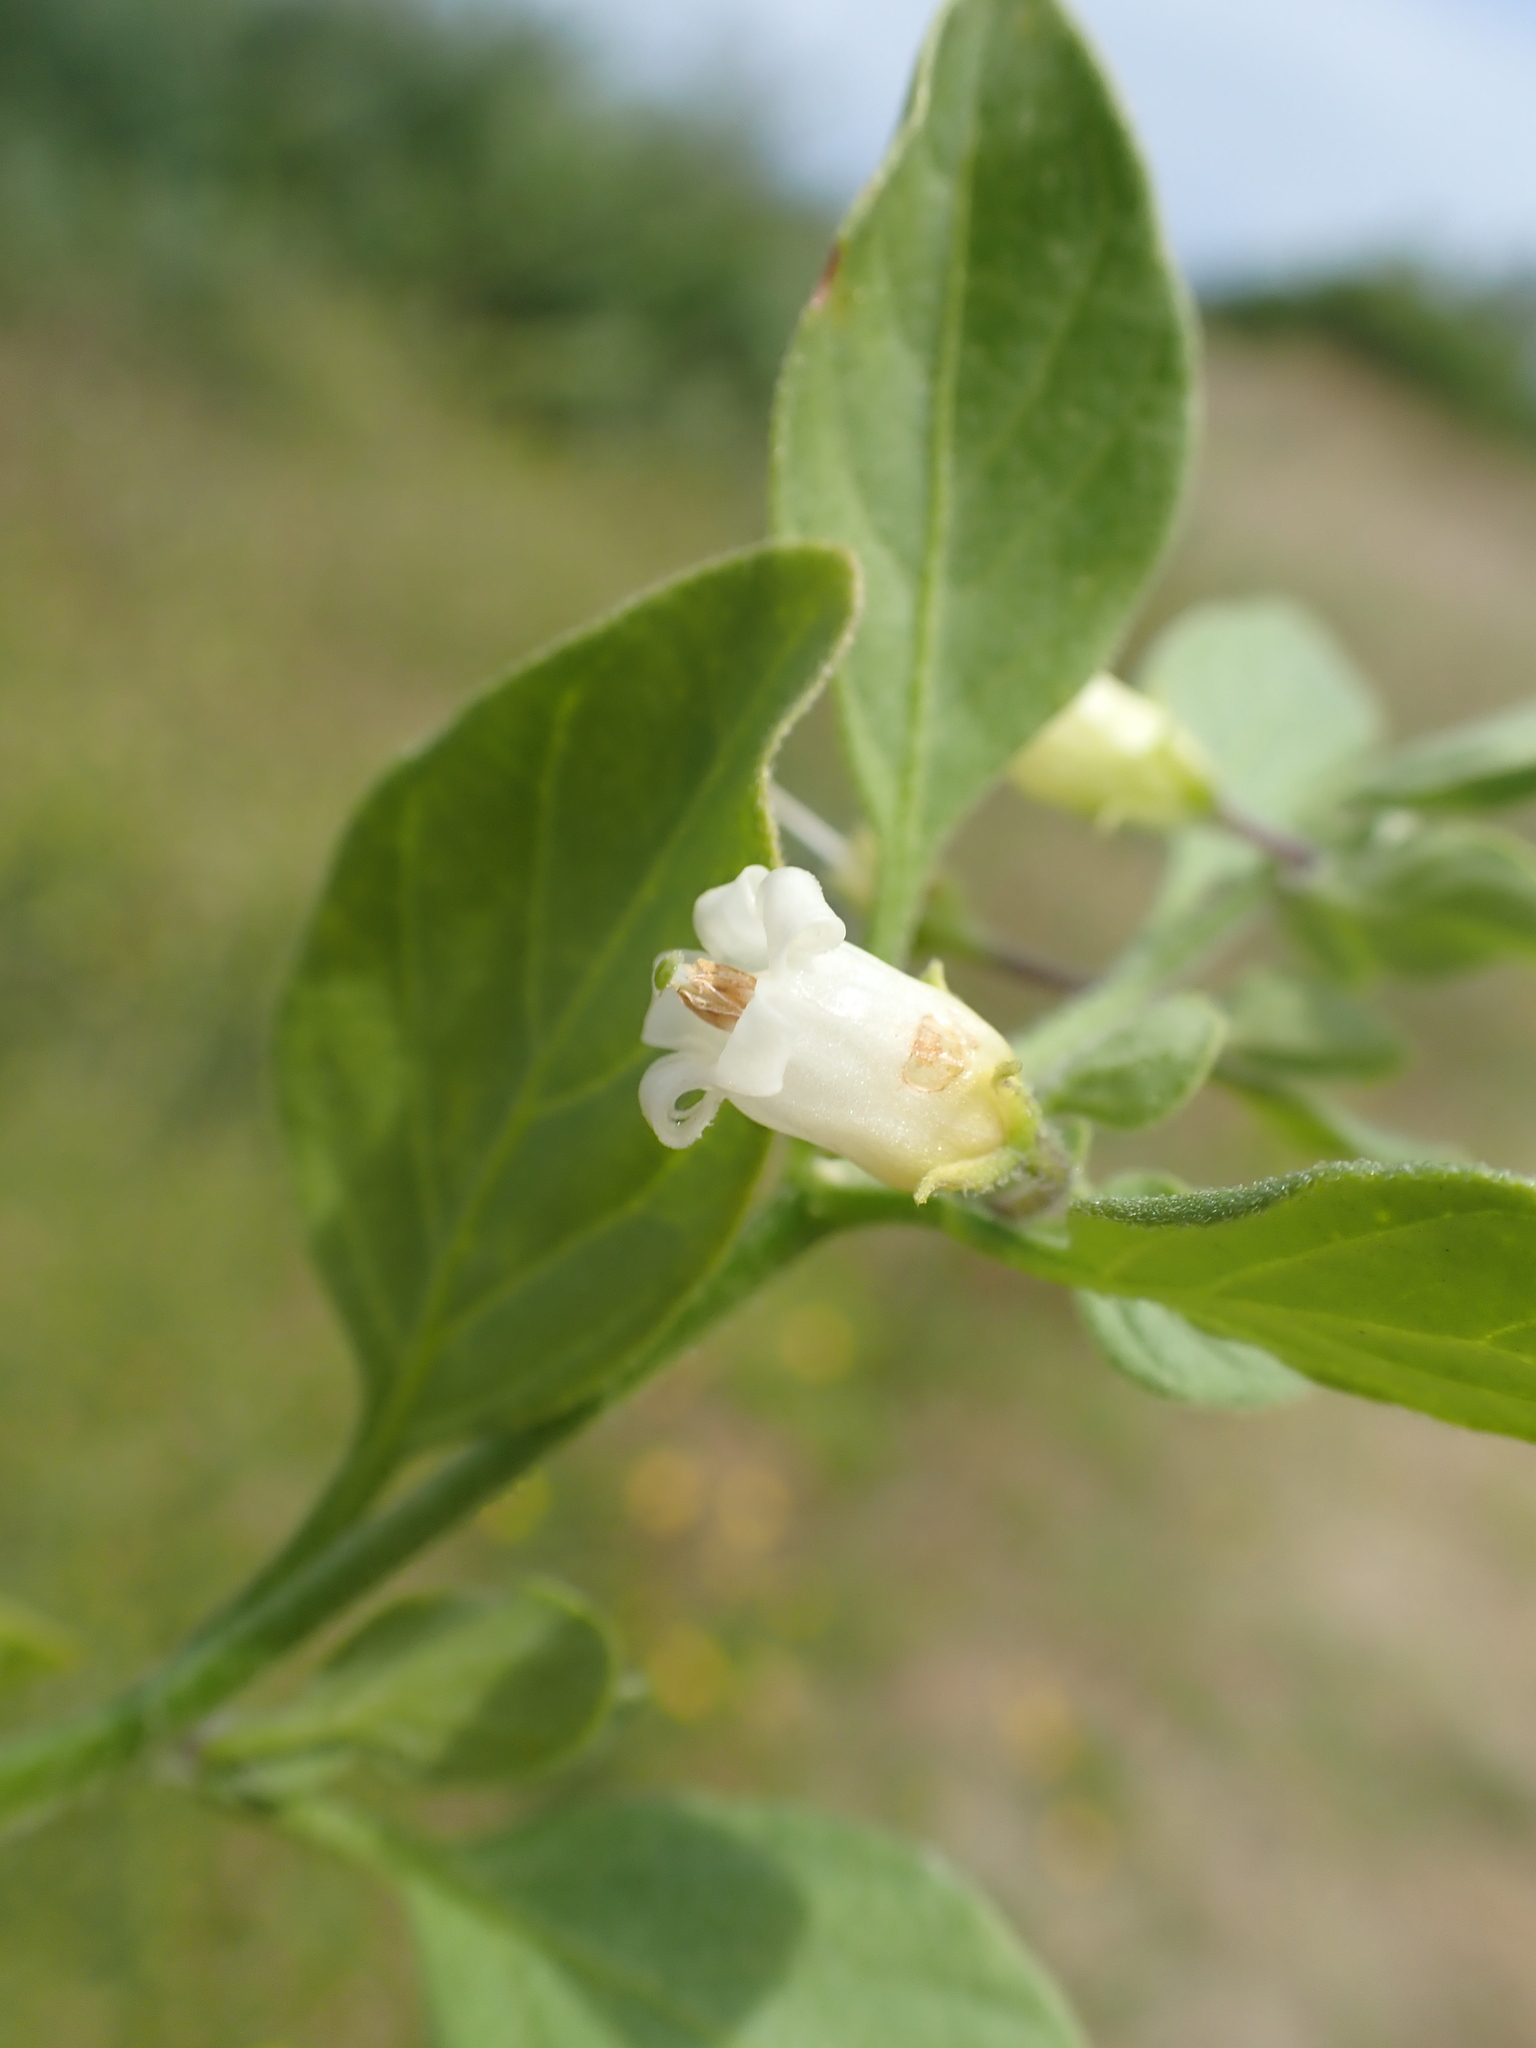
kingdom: Plantae
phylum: Tracheophyta
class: Magnoliopsida
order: Solanales
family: Solanaceae
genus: Salpichroa
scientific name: Salpichroa origanifolia
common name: Lily-of-the-valley-vine
